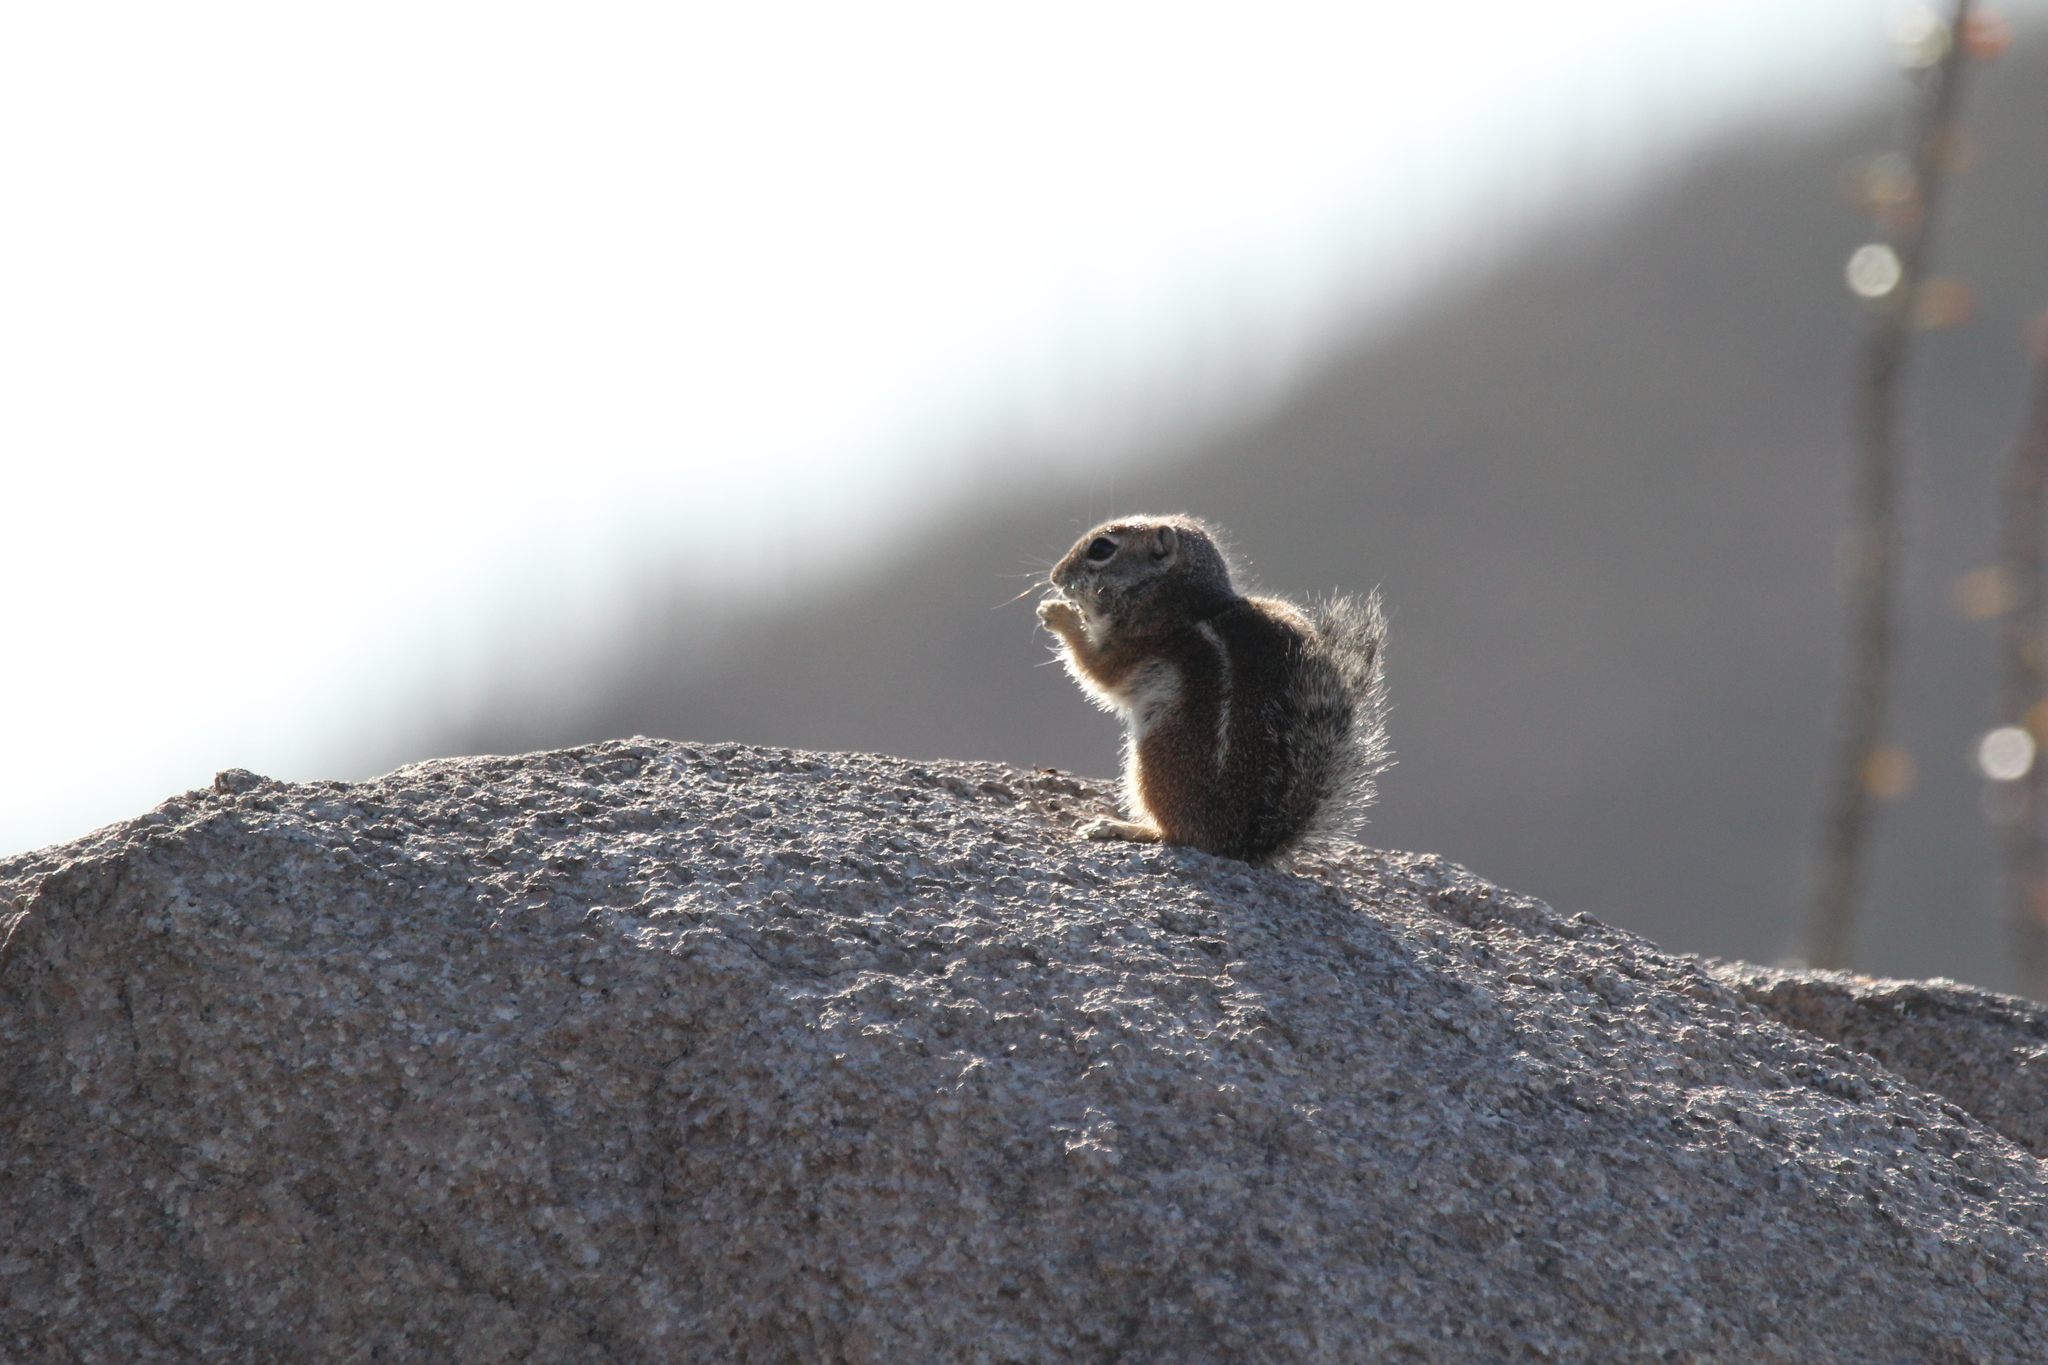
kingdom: Animalia
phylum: Chordata
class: Mammalia
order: Rodentia
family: Sciuridae
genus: Ammospermophilus
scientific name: Ammospermophilus harrisii
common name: Harris's antelope squirrel
